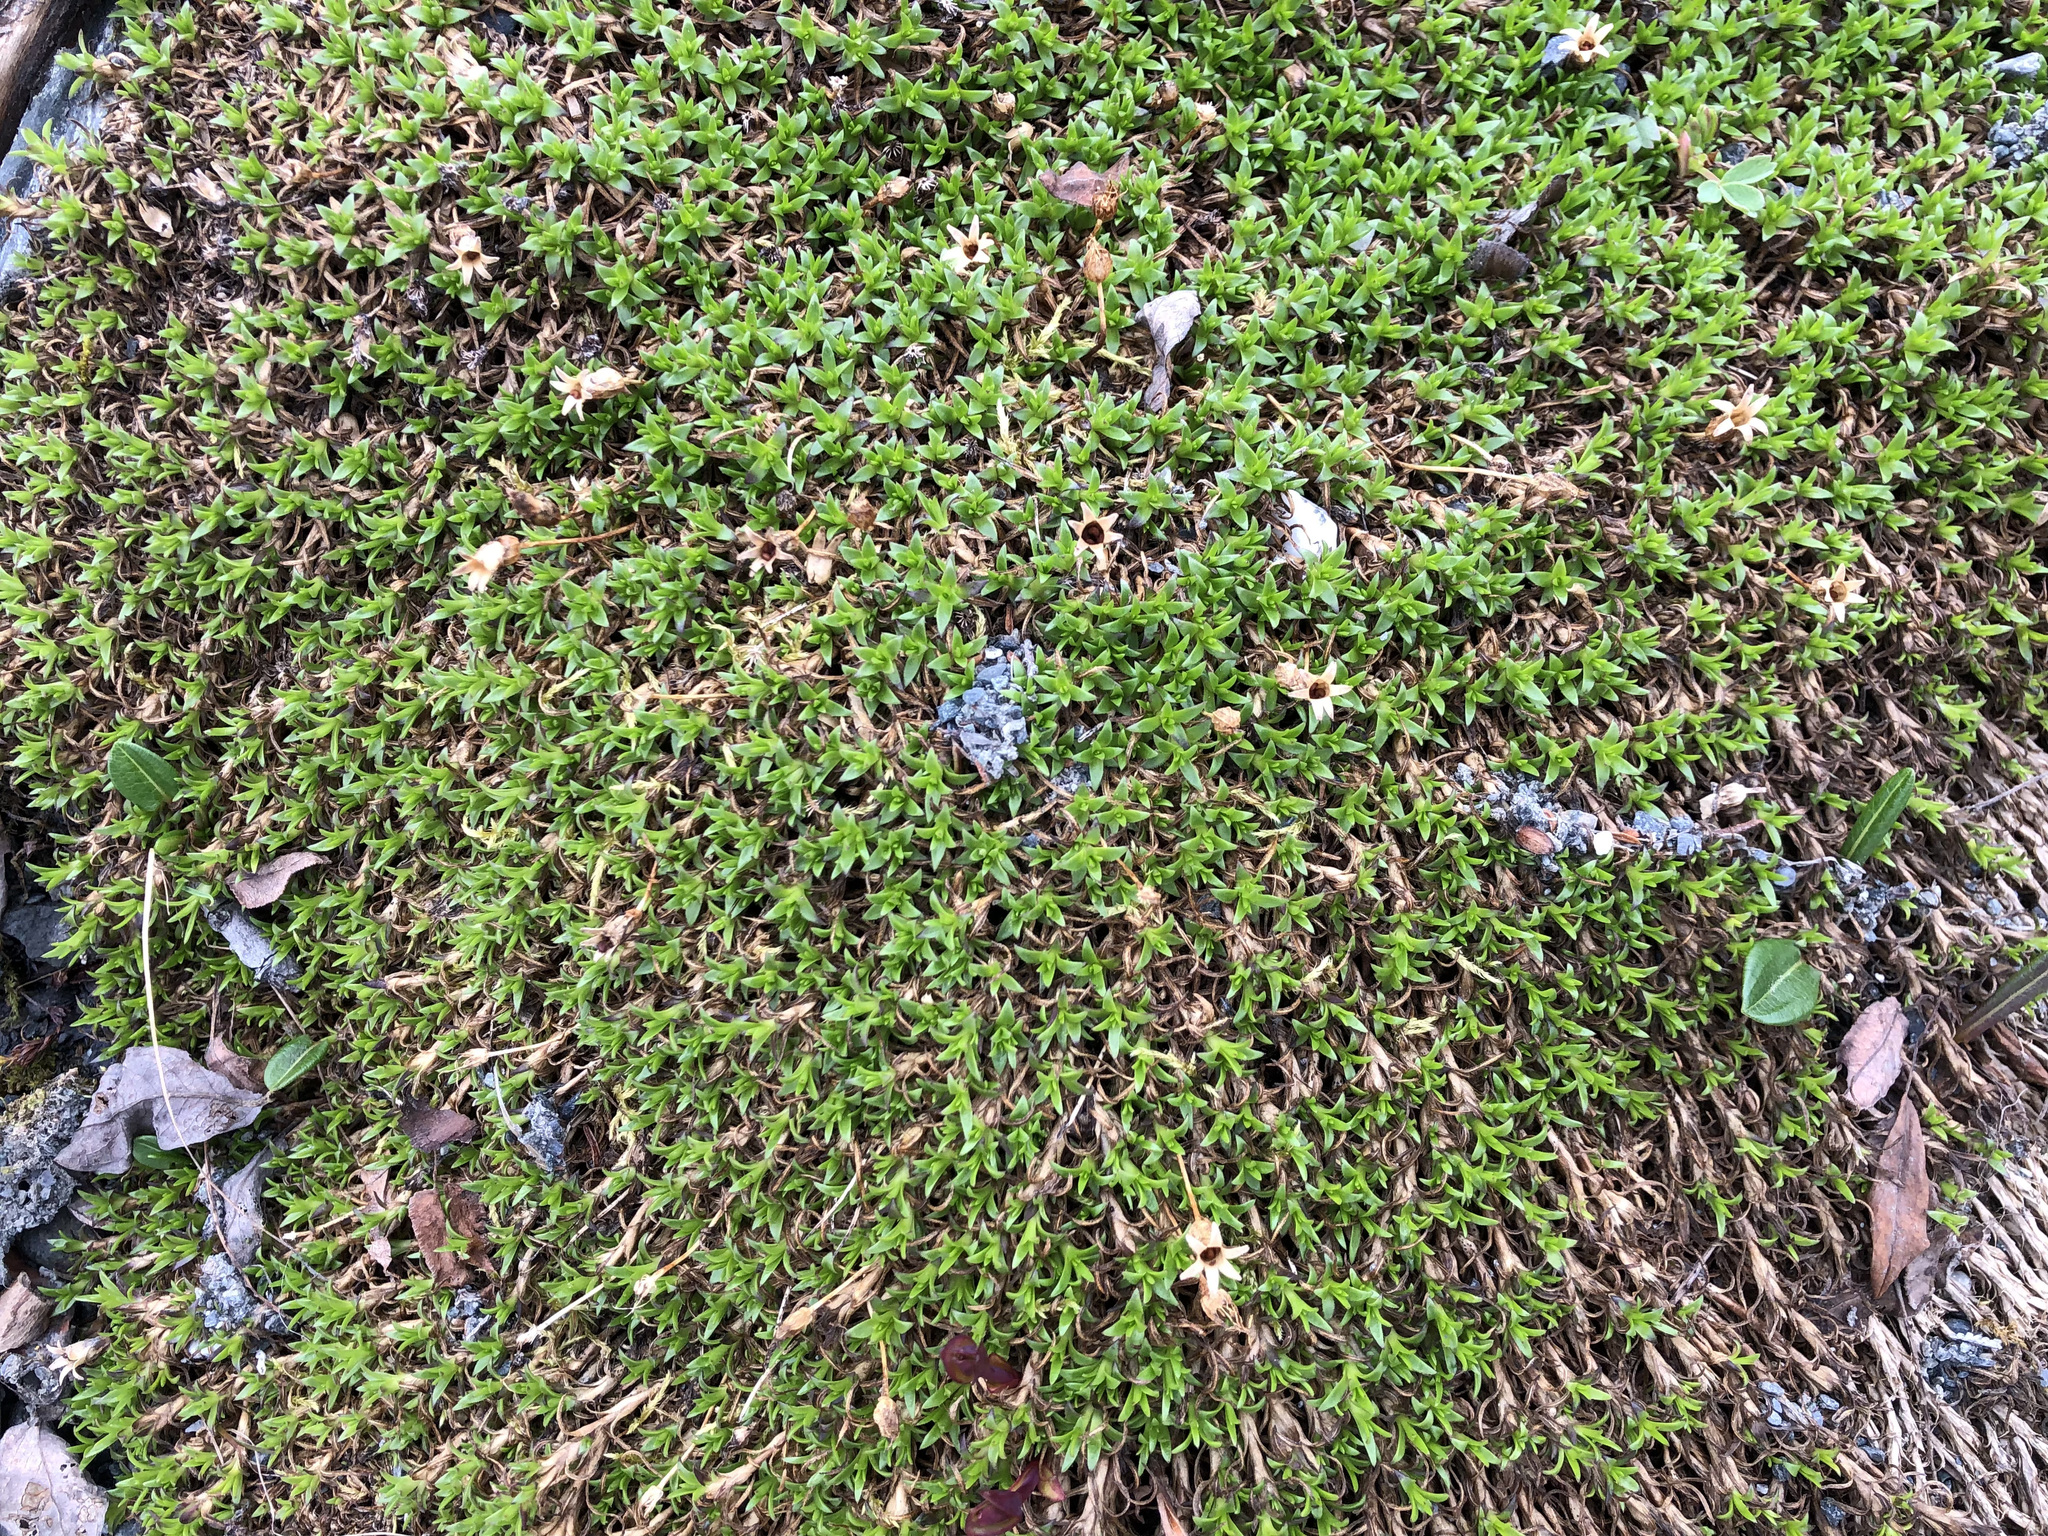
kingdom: Plantae
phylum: Tracheophyta
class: Magnoliopsida
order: Caryophyllales
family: Caryophyllaceae
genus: Silene
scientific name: Silene acaulis
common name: Moss campion
